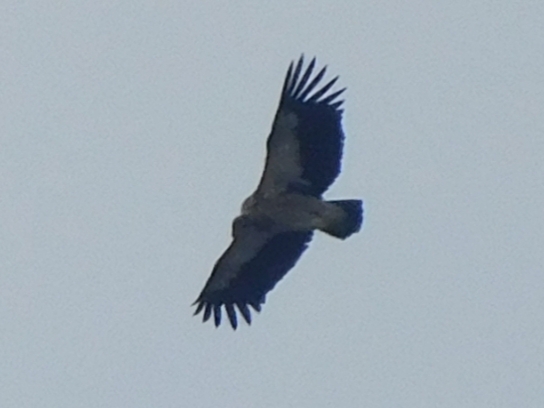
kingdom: Animalia
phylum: Chordata
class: Aves
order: Accipitriformes
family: Accipitridae
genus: Gyps
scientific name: Gyps himalayensis
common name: Himalayan griffon
